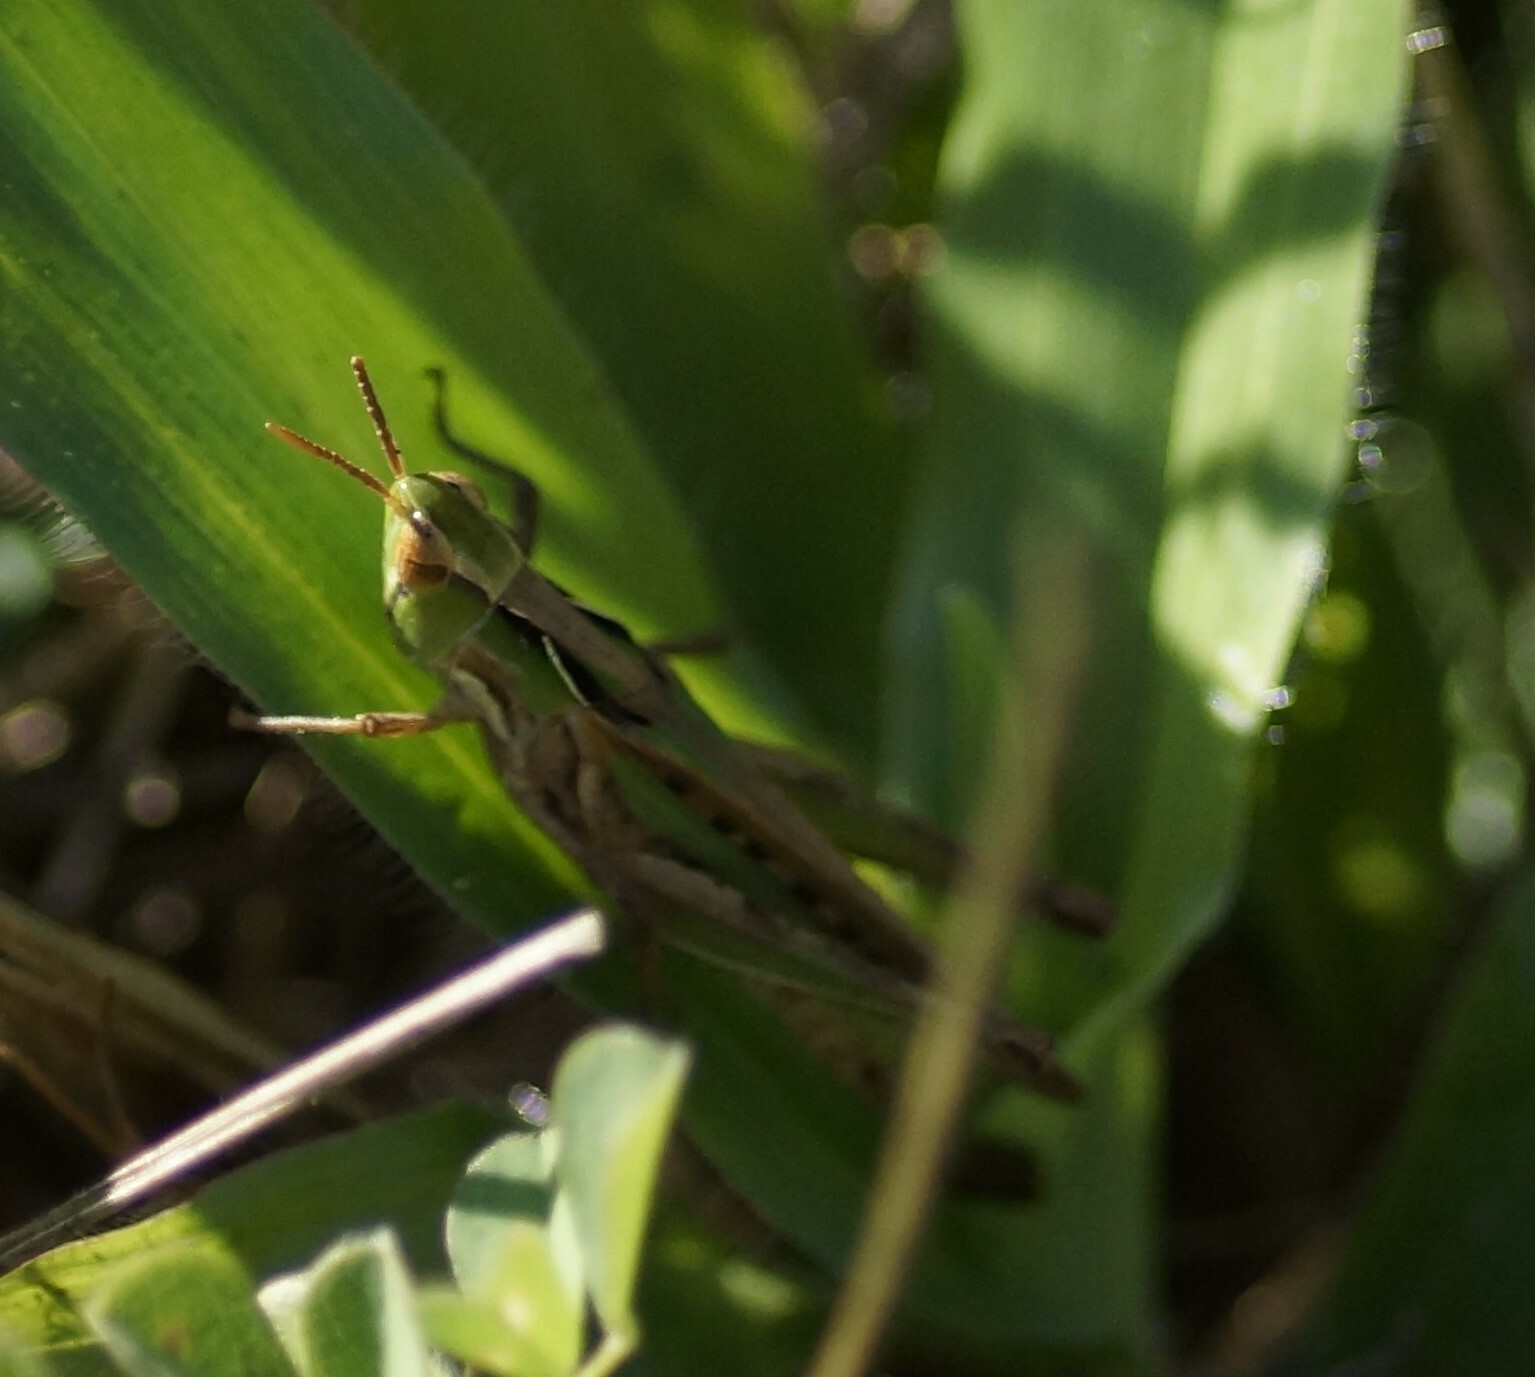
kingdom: Animalia
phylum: Arthropoda
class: Insecta
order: Orthoptera
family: Acrididae
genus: Calephorops
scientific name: Calephorops viridis
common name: Calephorops
